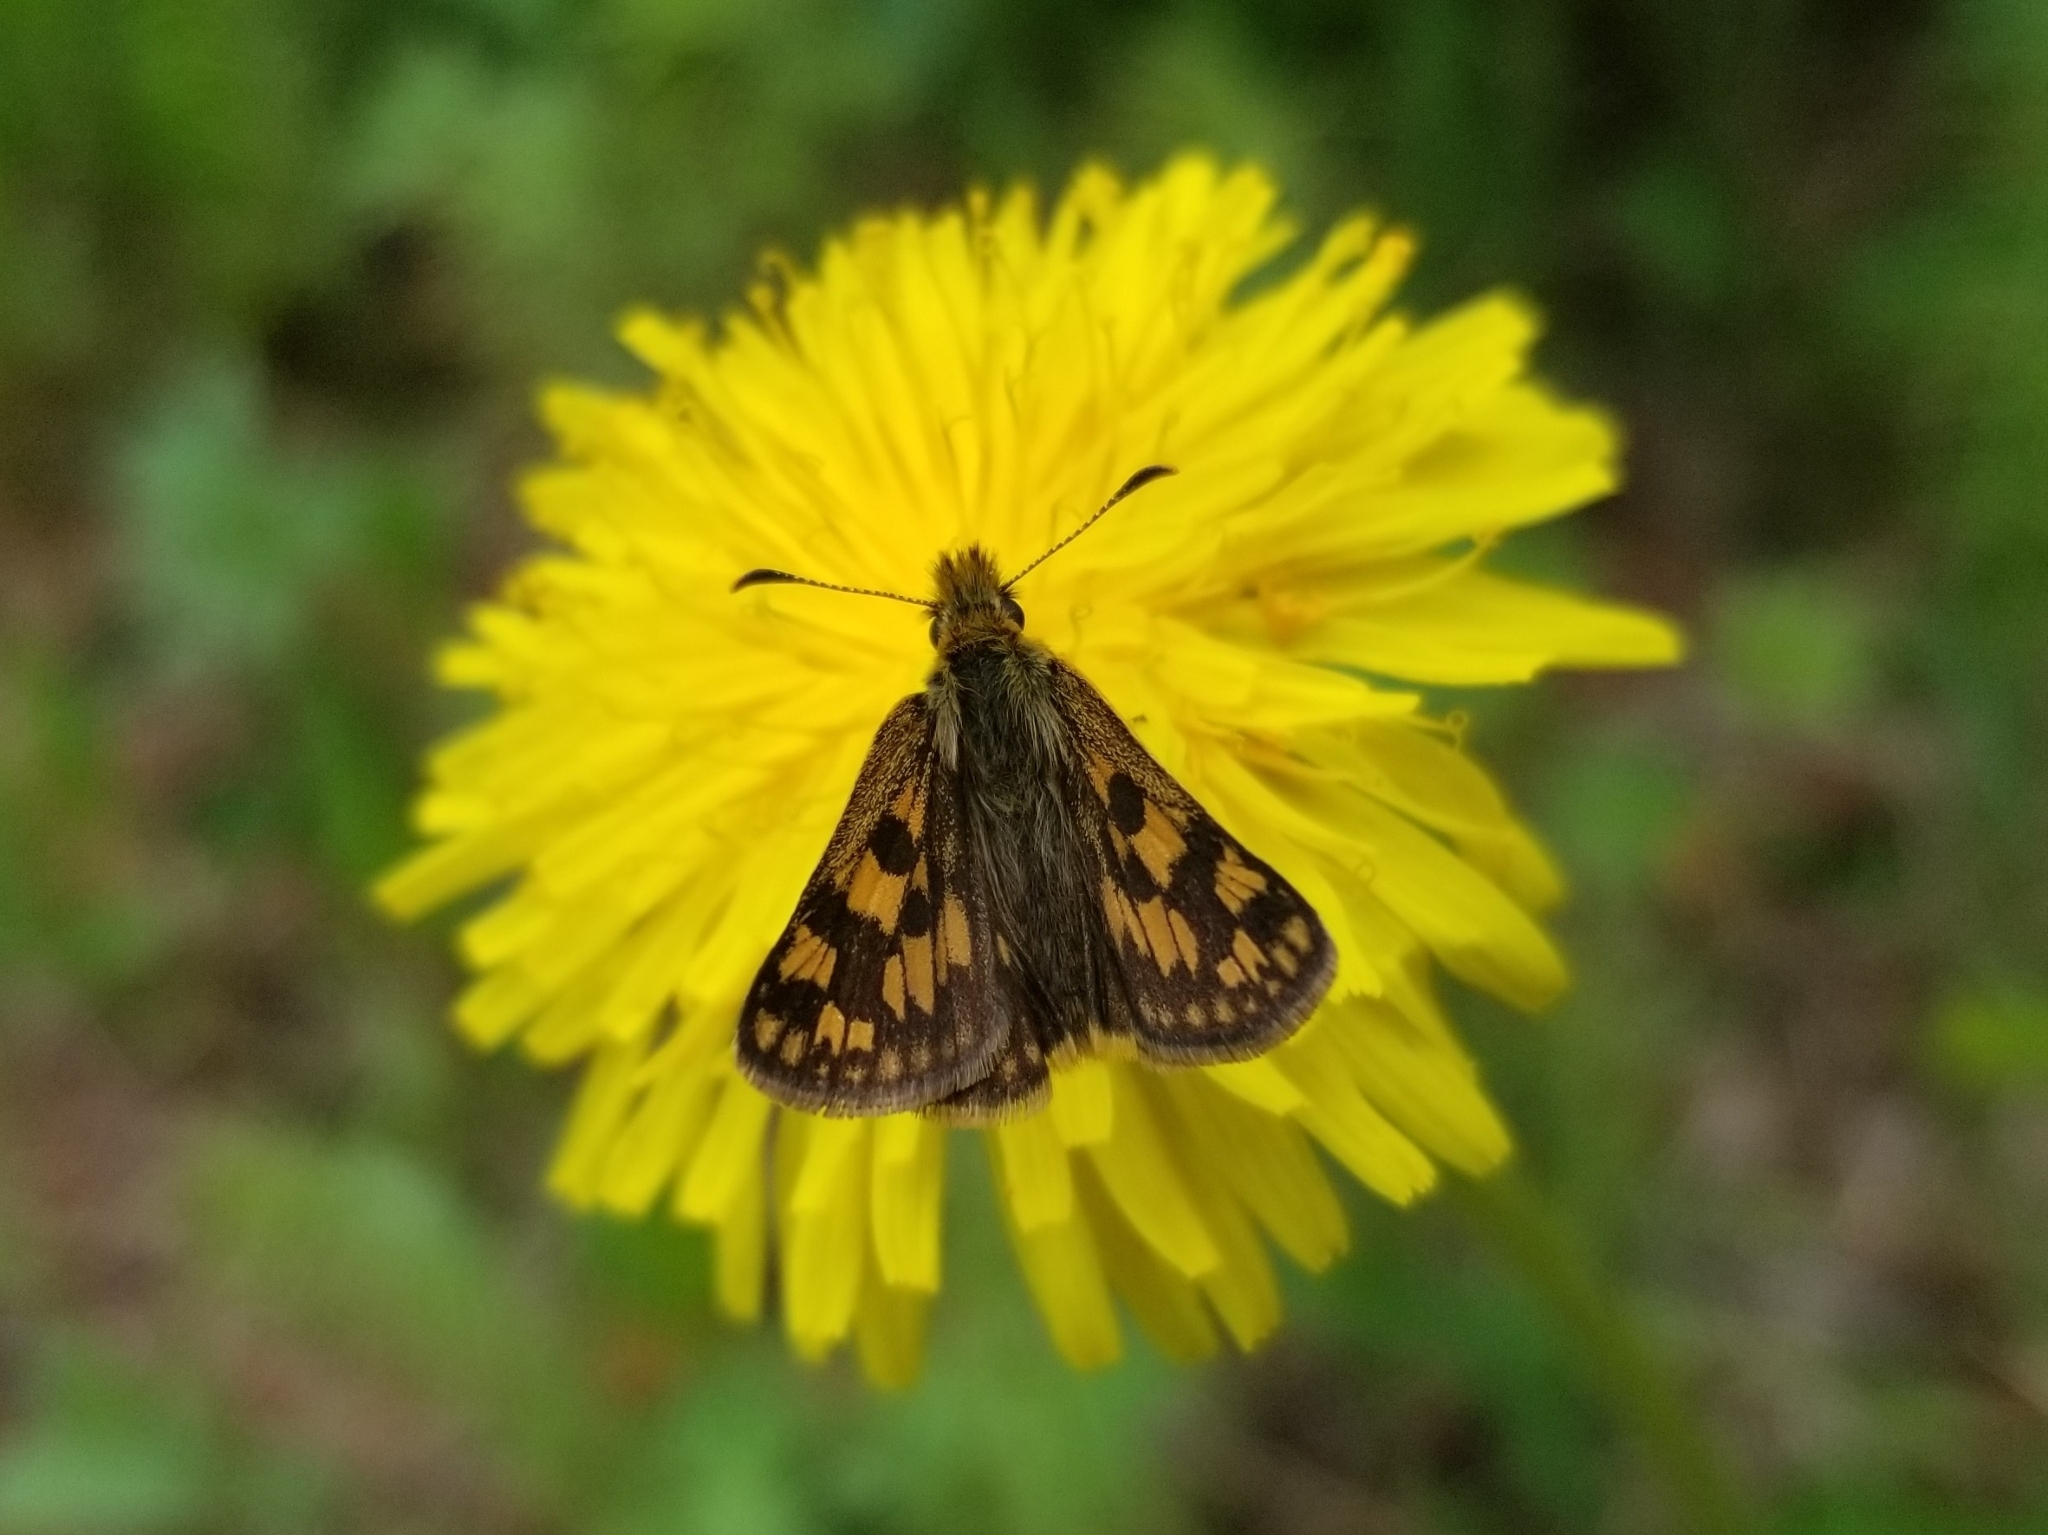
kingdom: Animalia
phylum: Arthropoda
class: Insecta
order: Lepidoptera
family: Hesperiidae
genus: Carterocephalus
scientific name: Carterocephalus skada
